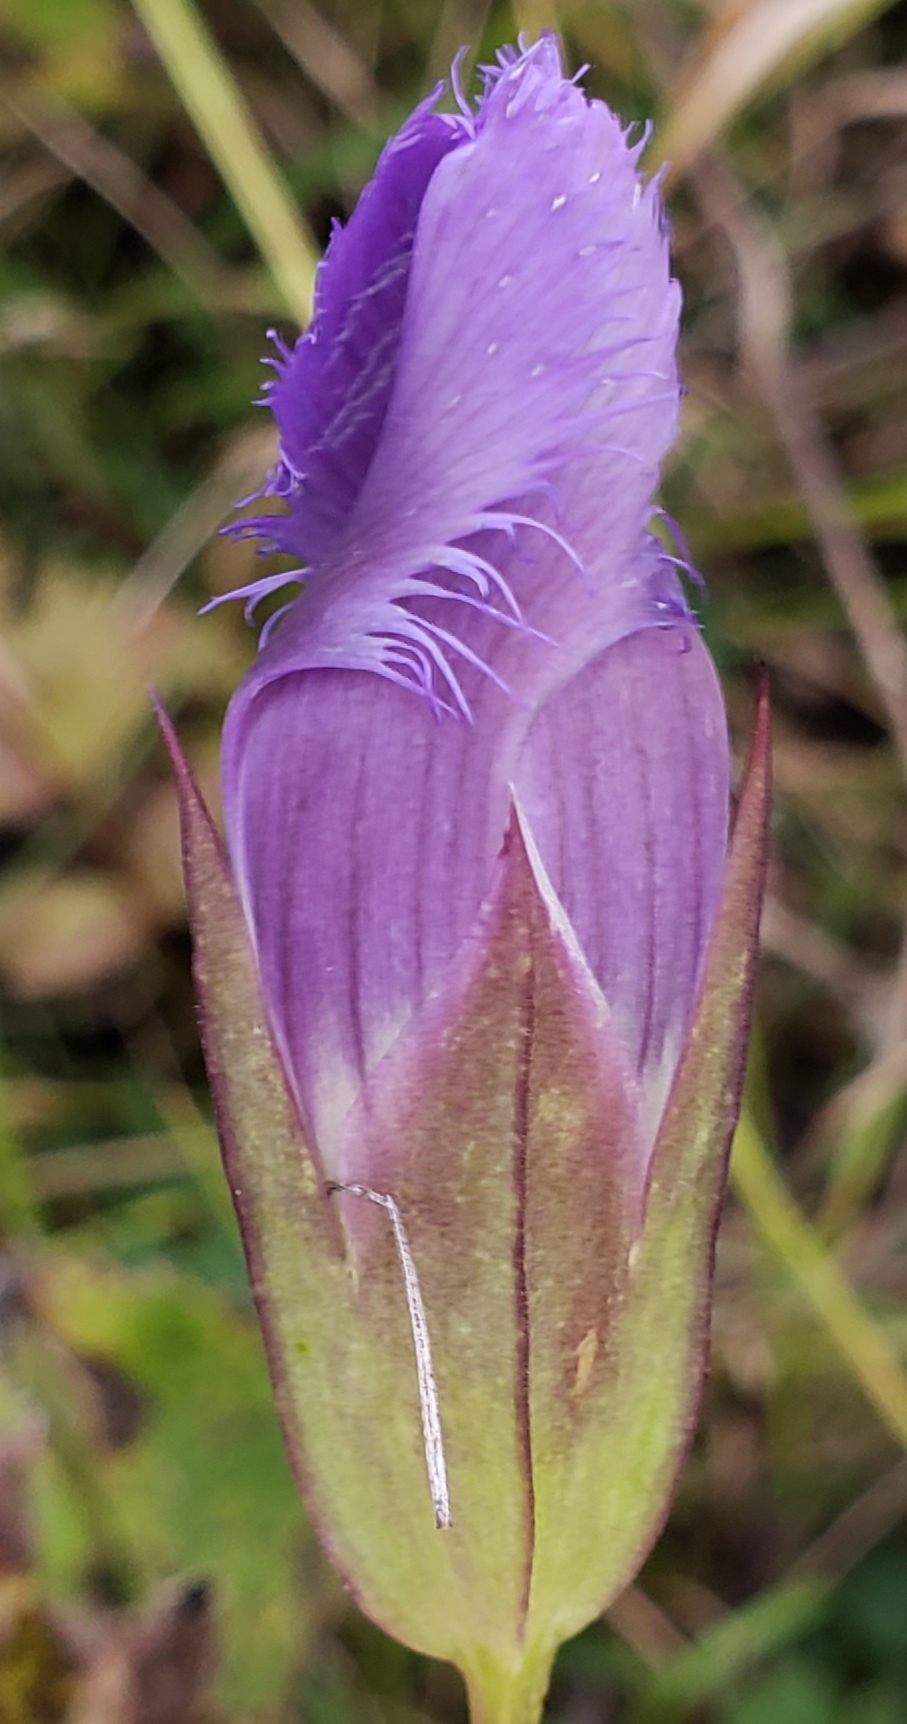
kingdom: Plantae
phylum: Tracheophyta
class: Magnoliopsida
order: Gentianales
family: Gentianaceae
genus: Gentianopsis
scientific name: Gentianopsis crinita
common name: Fringed-gentian
